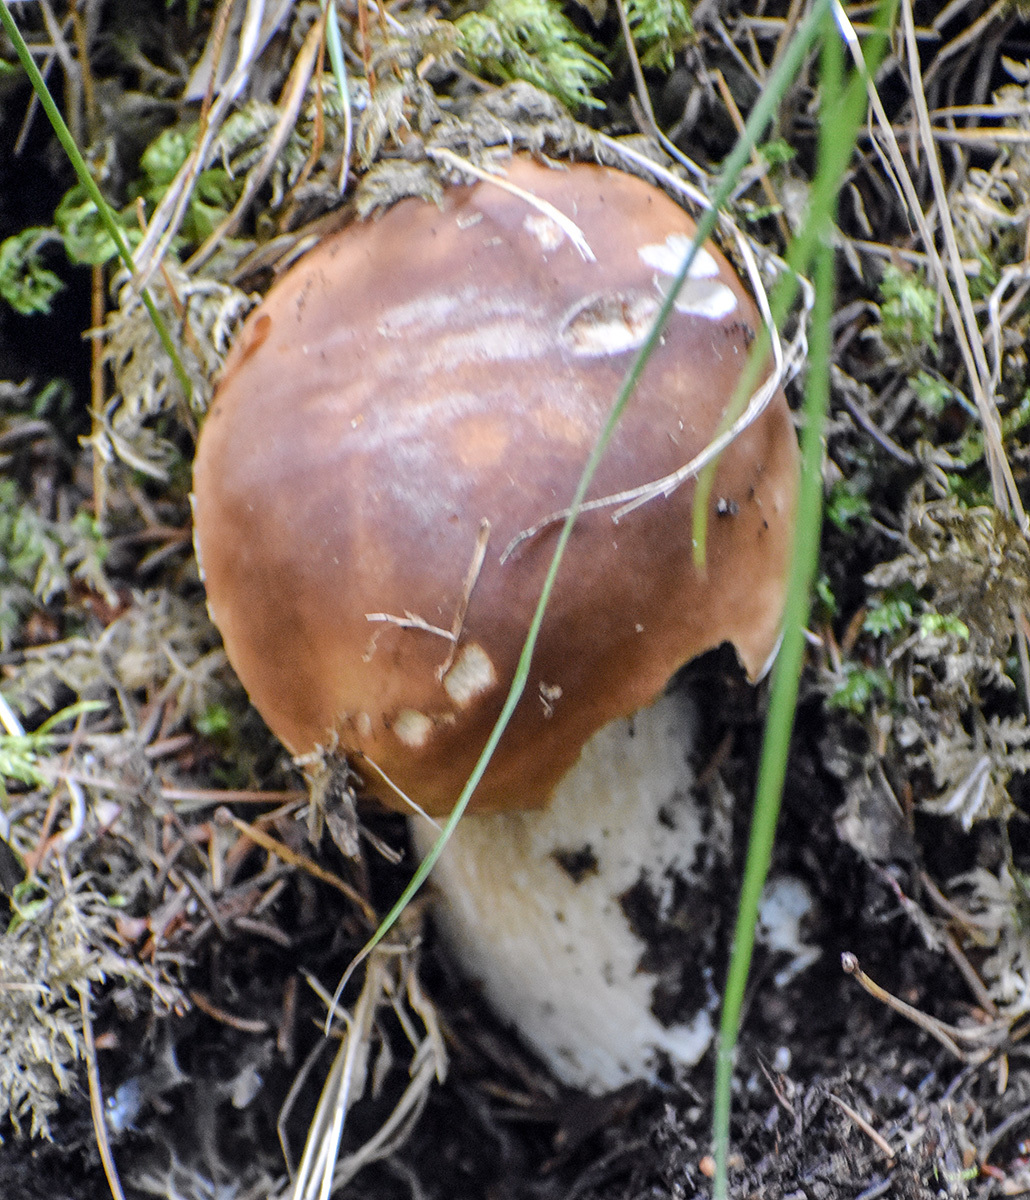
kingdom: Fungi
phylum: Basidiomycota
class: Agaricomycetes
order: Boletales
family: Boletaceae
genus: Boletus
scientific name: Boletus edulis
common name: Cep
